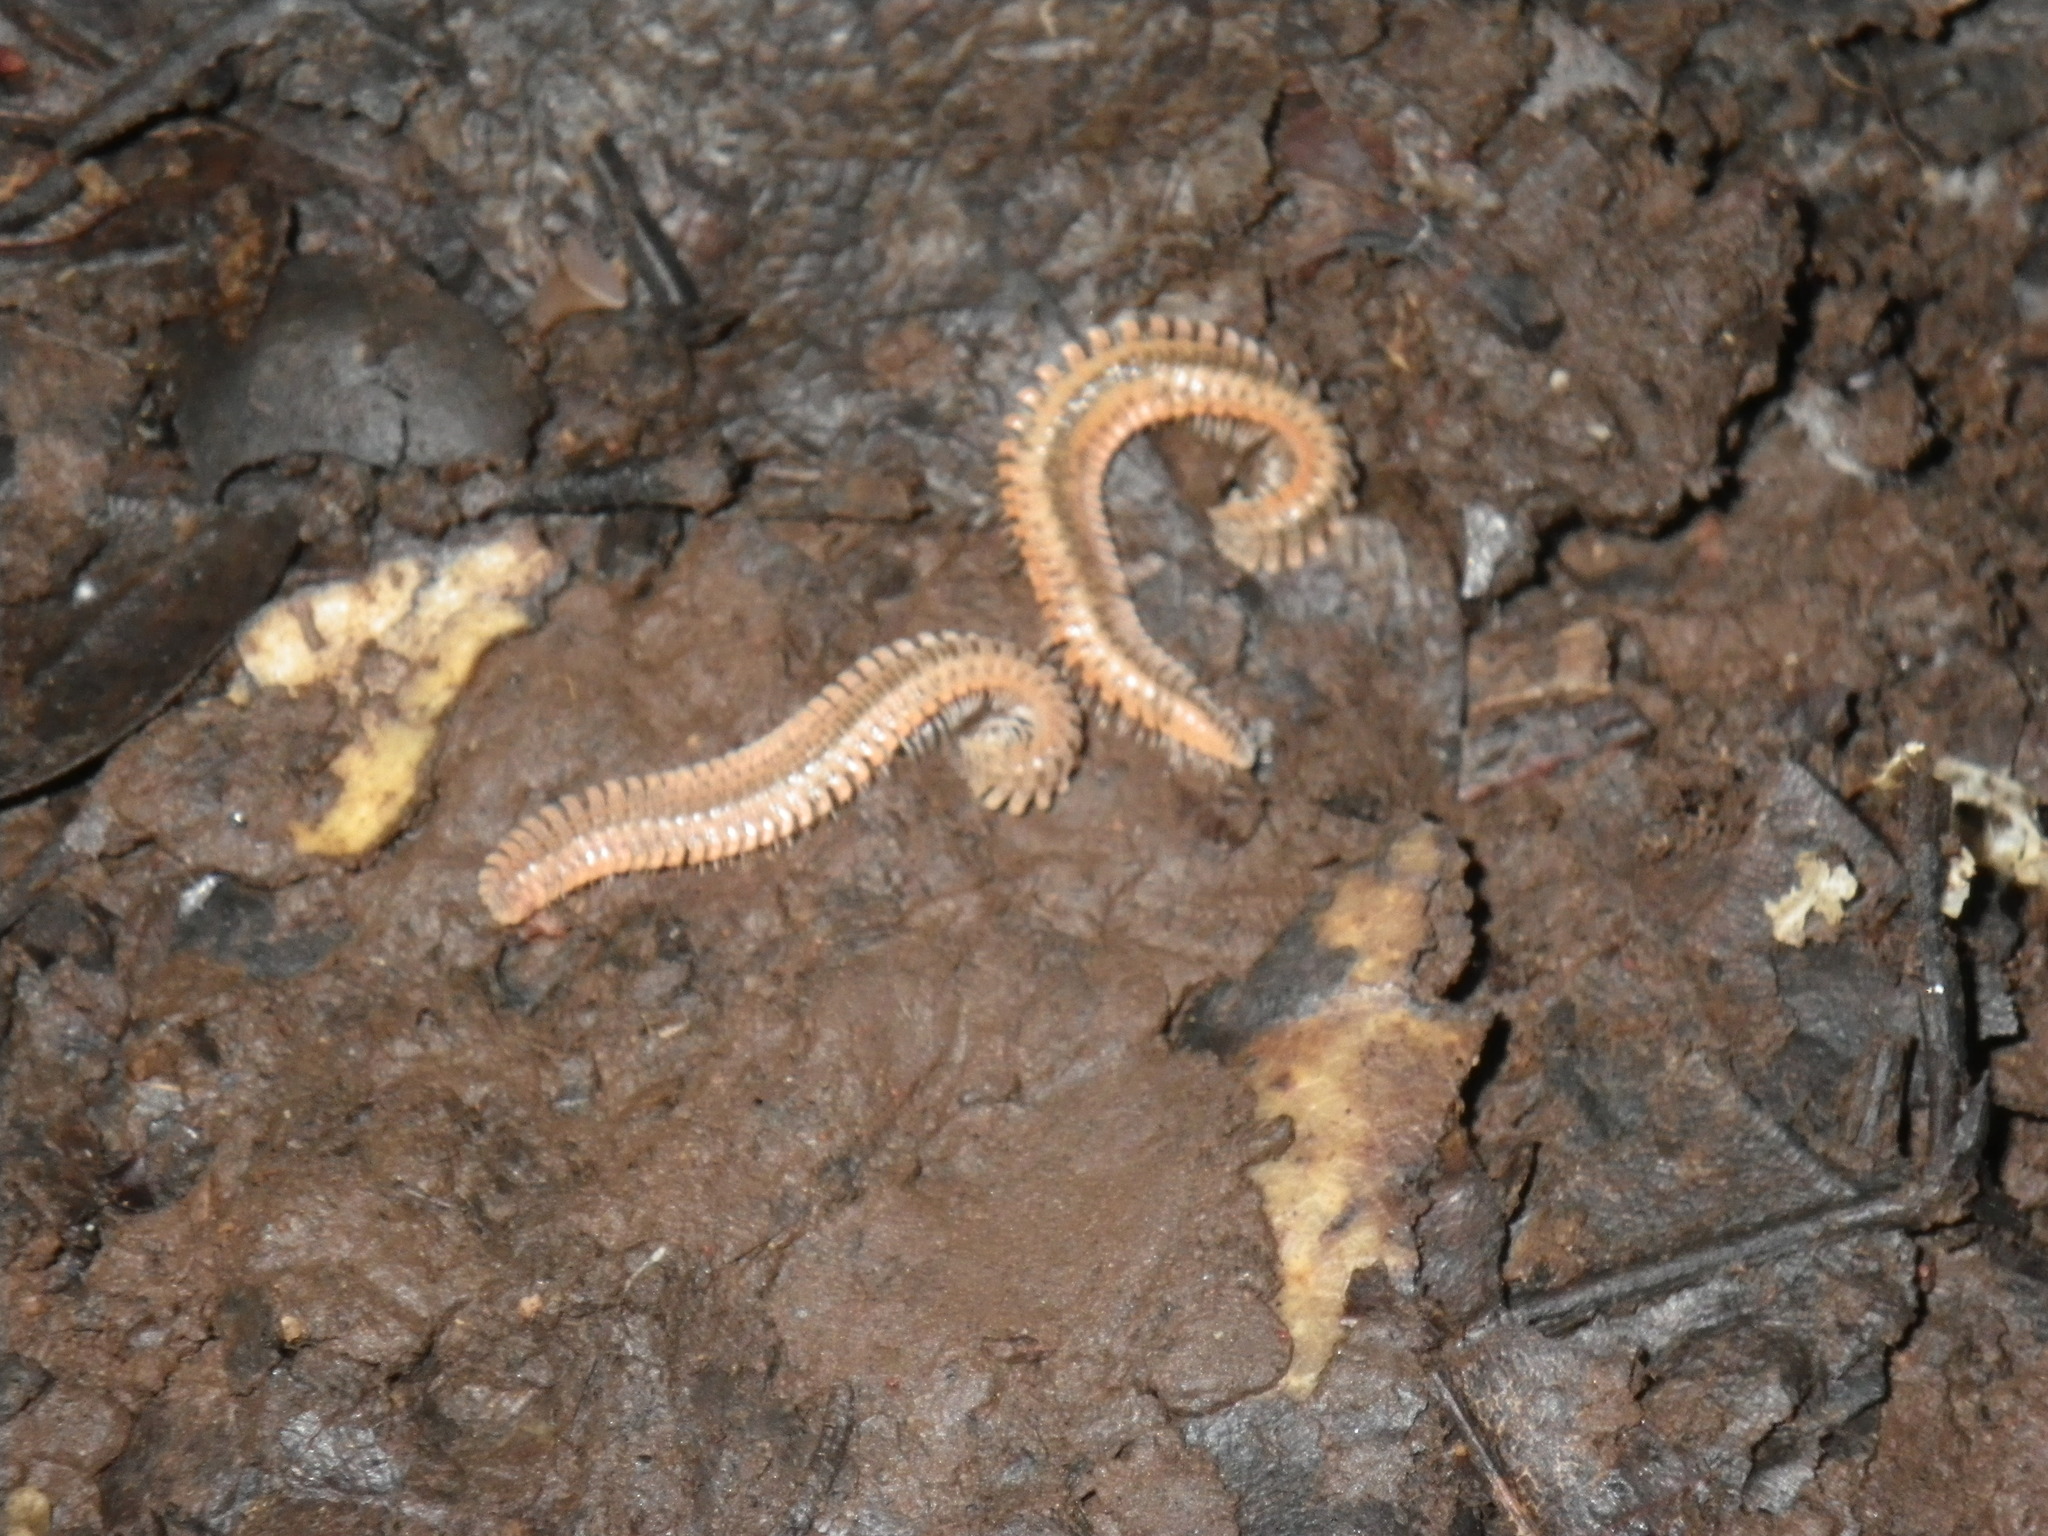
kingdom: Animalia
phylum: Arthropoda
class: Diplopoda
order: Platydesmida
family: Andrognathidae
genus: Brachycybe
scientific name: Brachycybe producta
